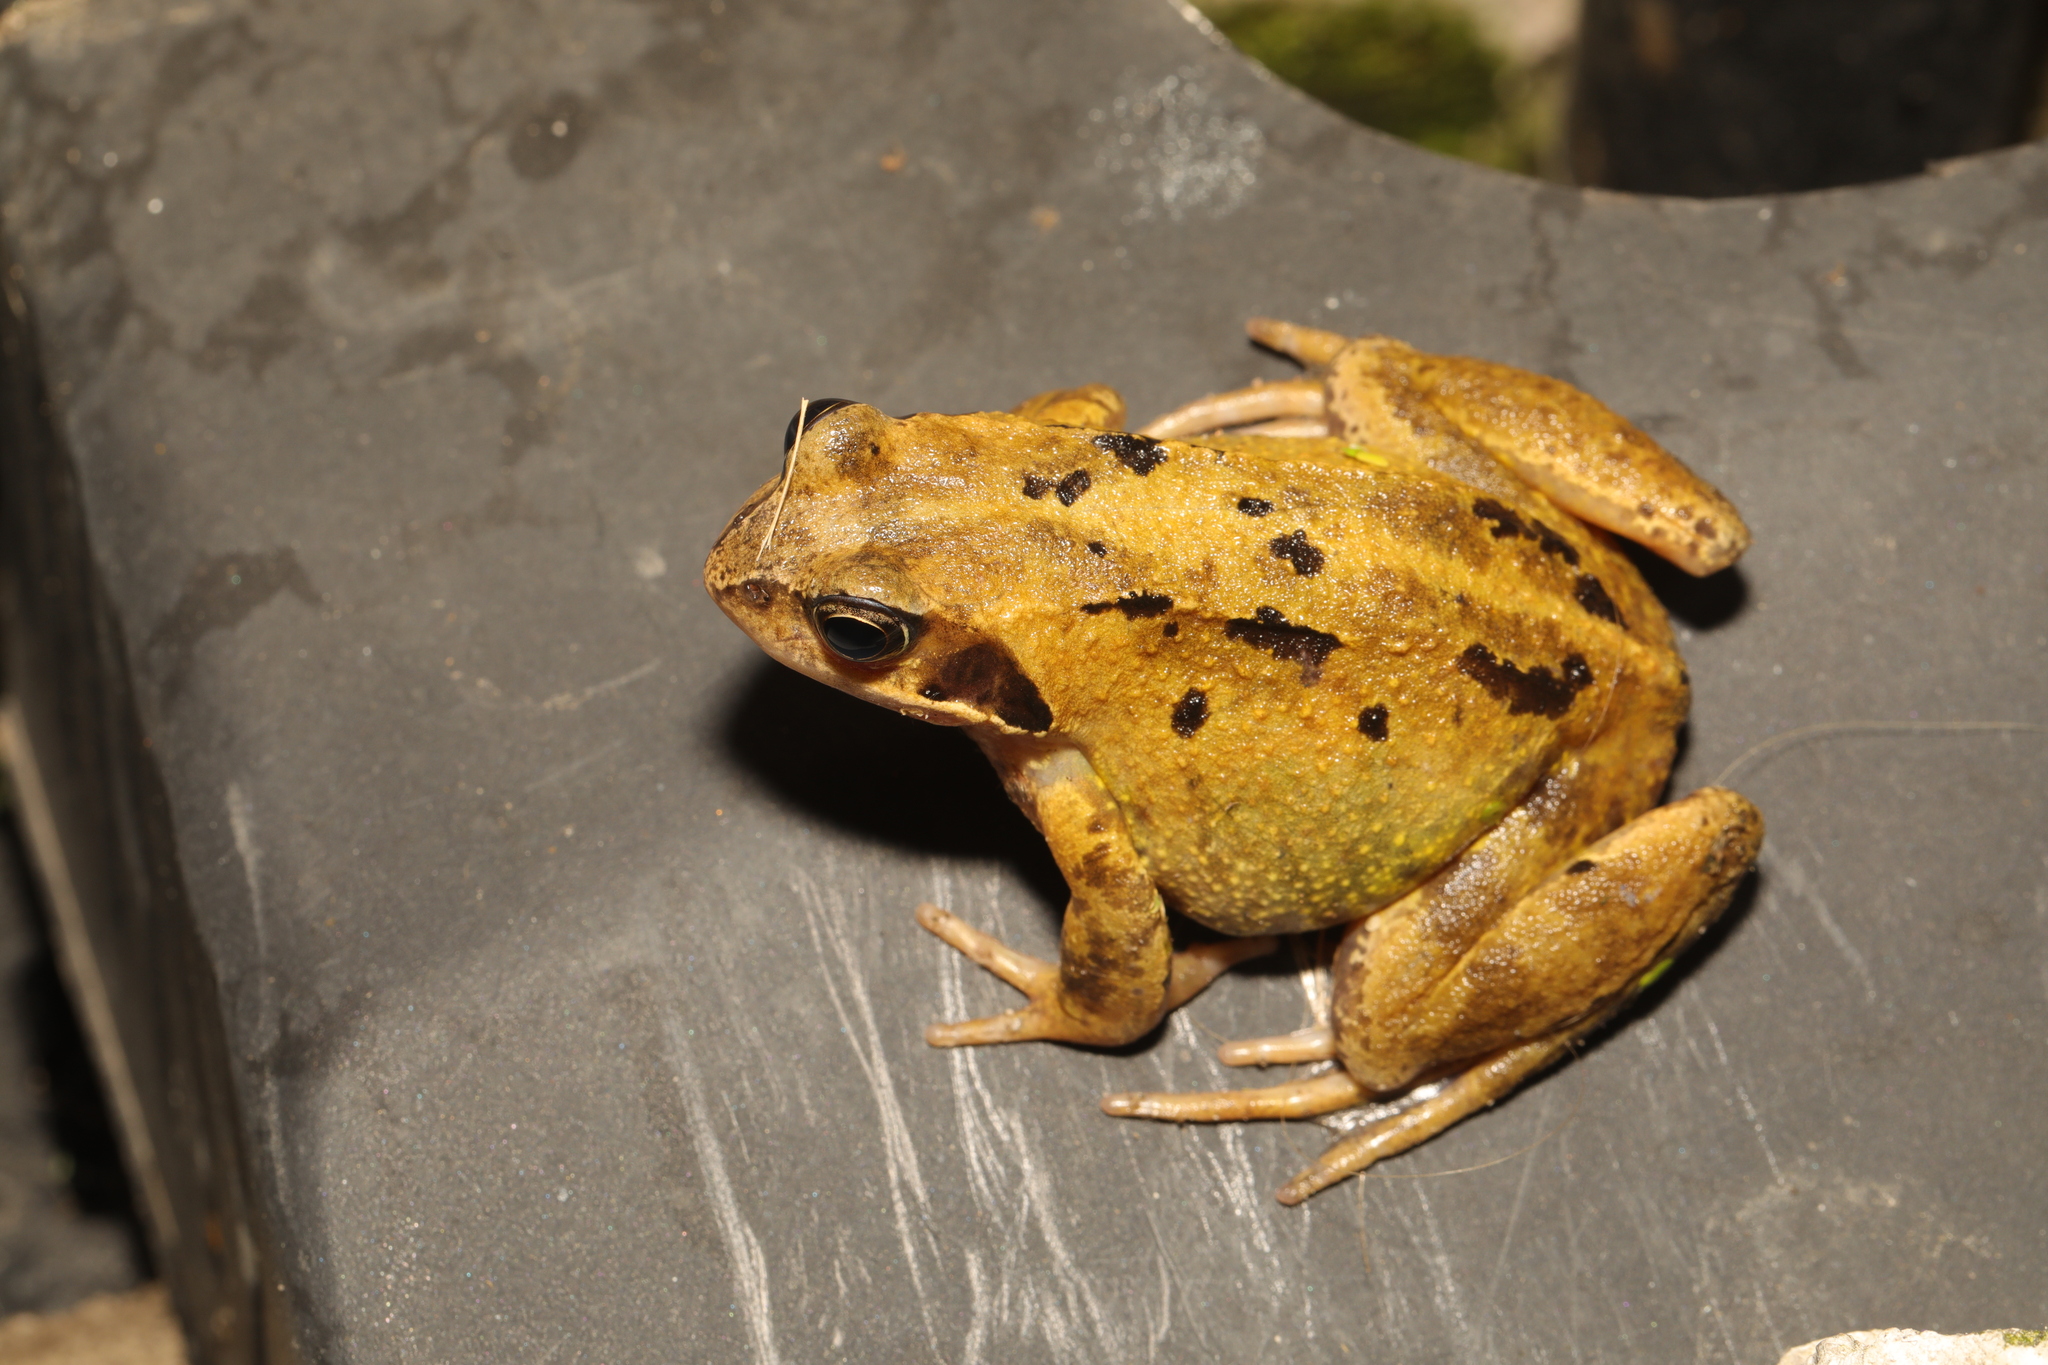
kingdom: Animalia
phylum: Chordata
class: Amphibia
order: Anura
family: Ranidae
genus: Rana
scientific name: Rana temporaria
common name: Common frog
